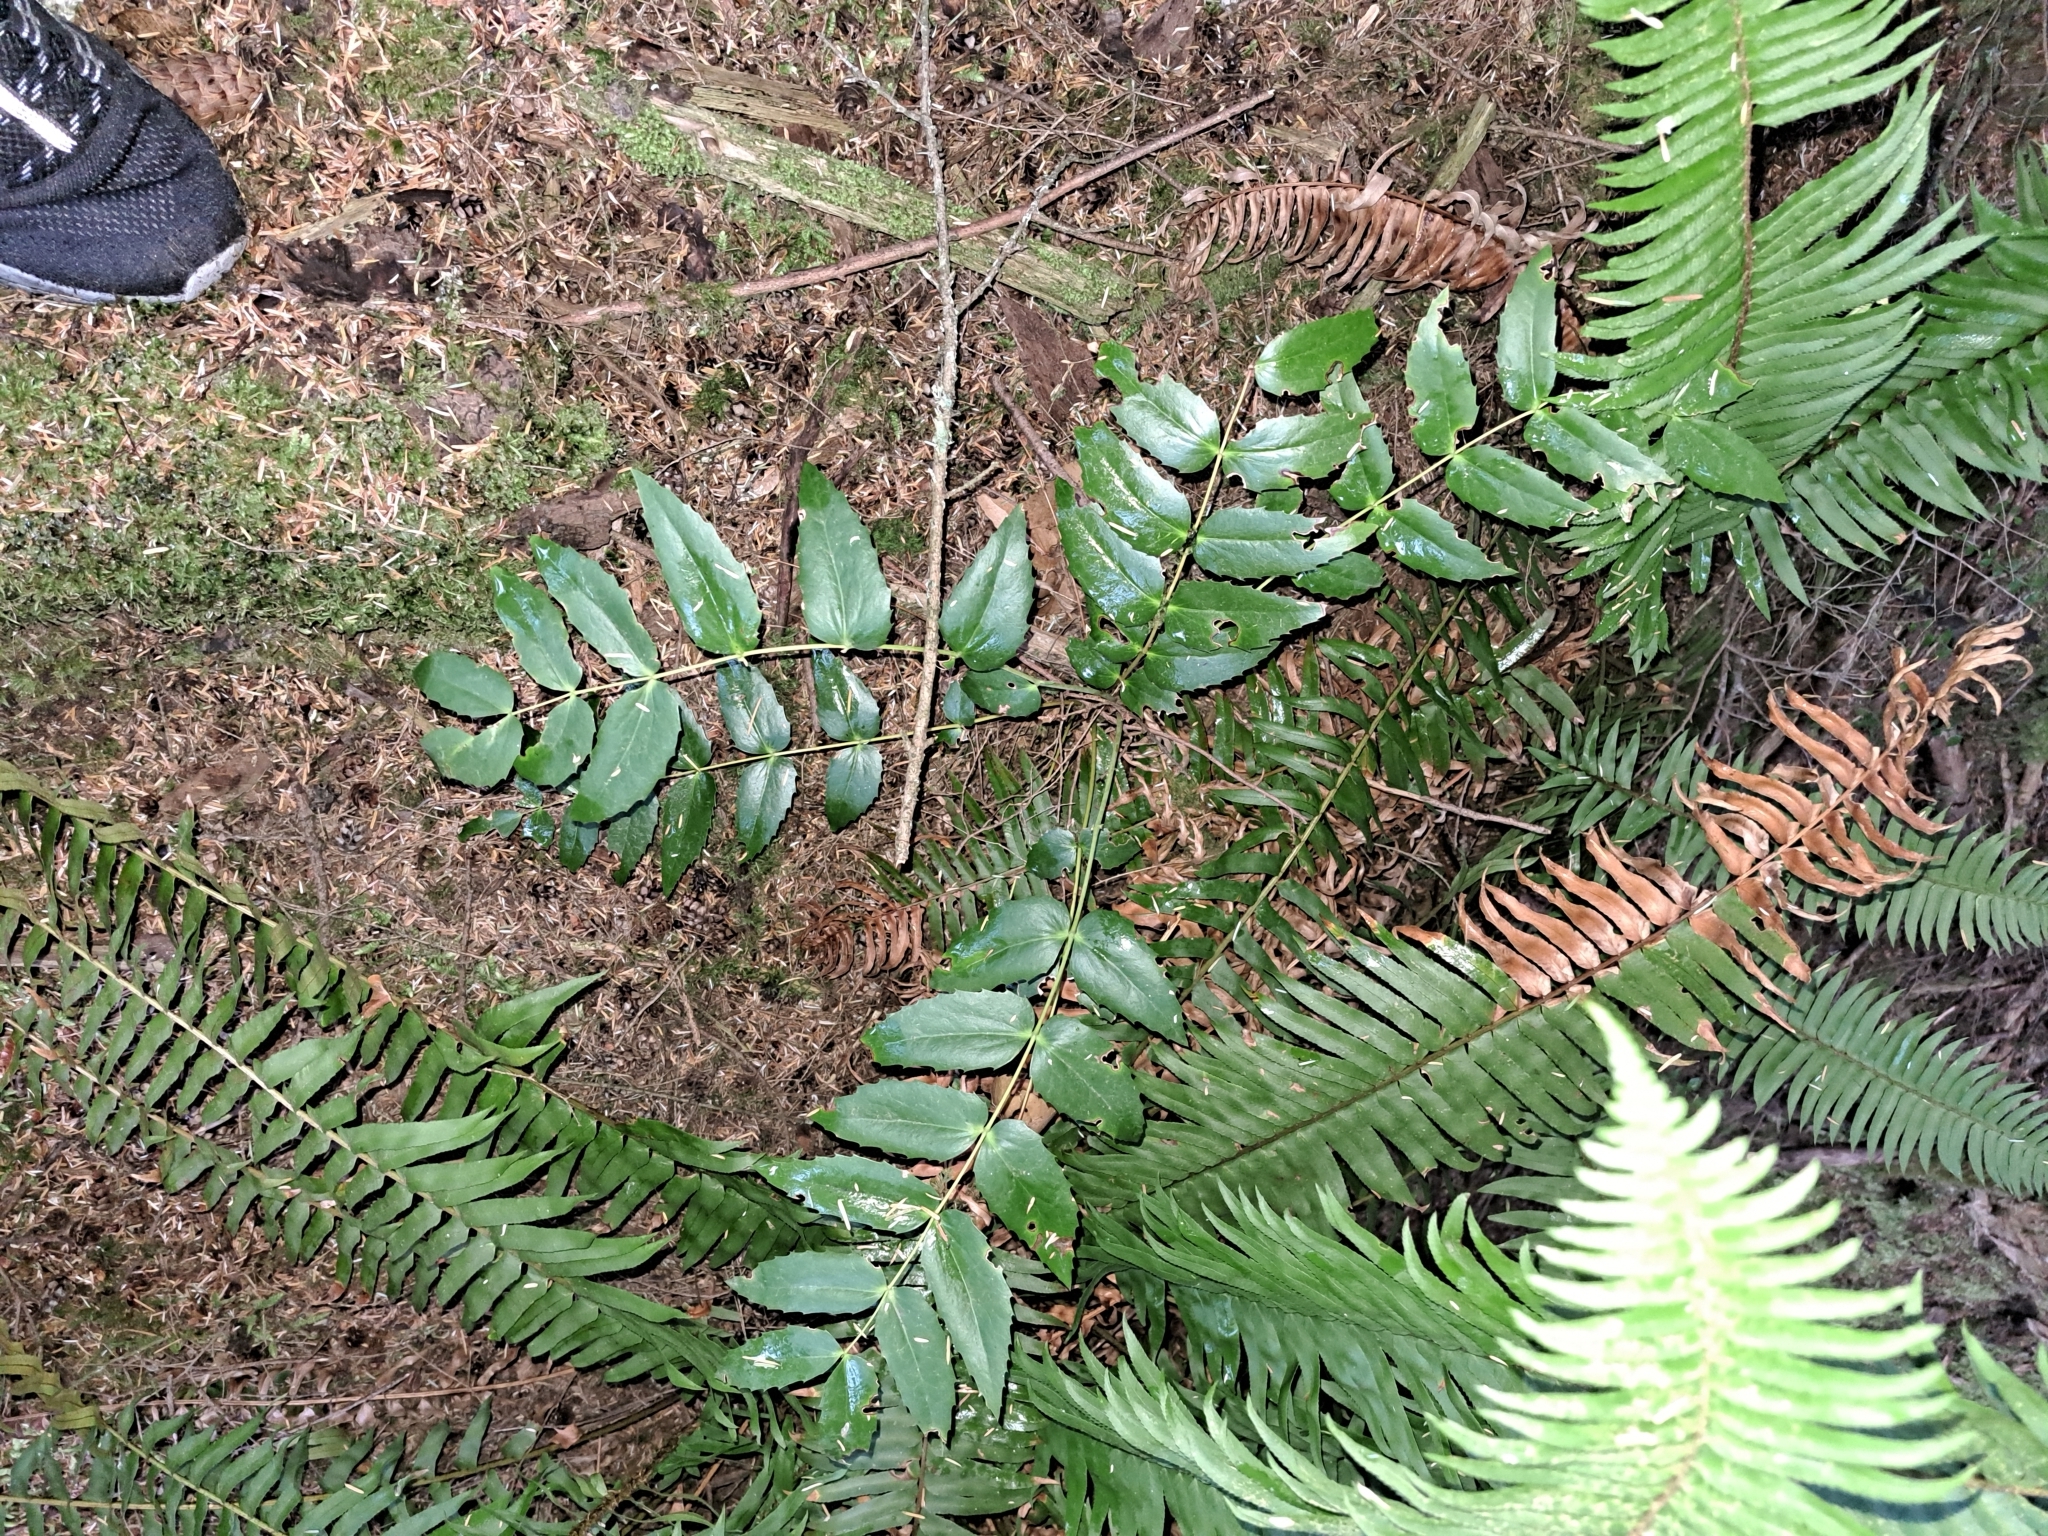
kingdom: Plantae
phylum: Tracheophyta
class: Magnoliopsida
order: Ranunculales
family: Berberidaceae
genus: Mahonia
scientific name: Mahonia nervosa
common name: Cascade oregon-grape
